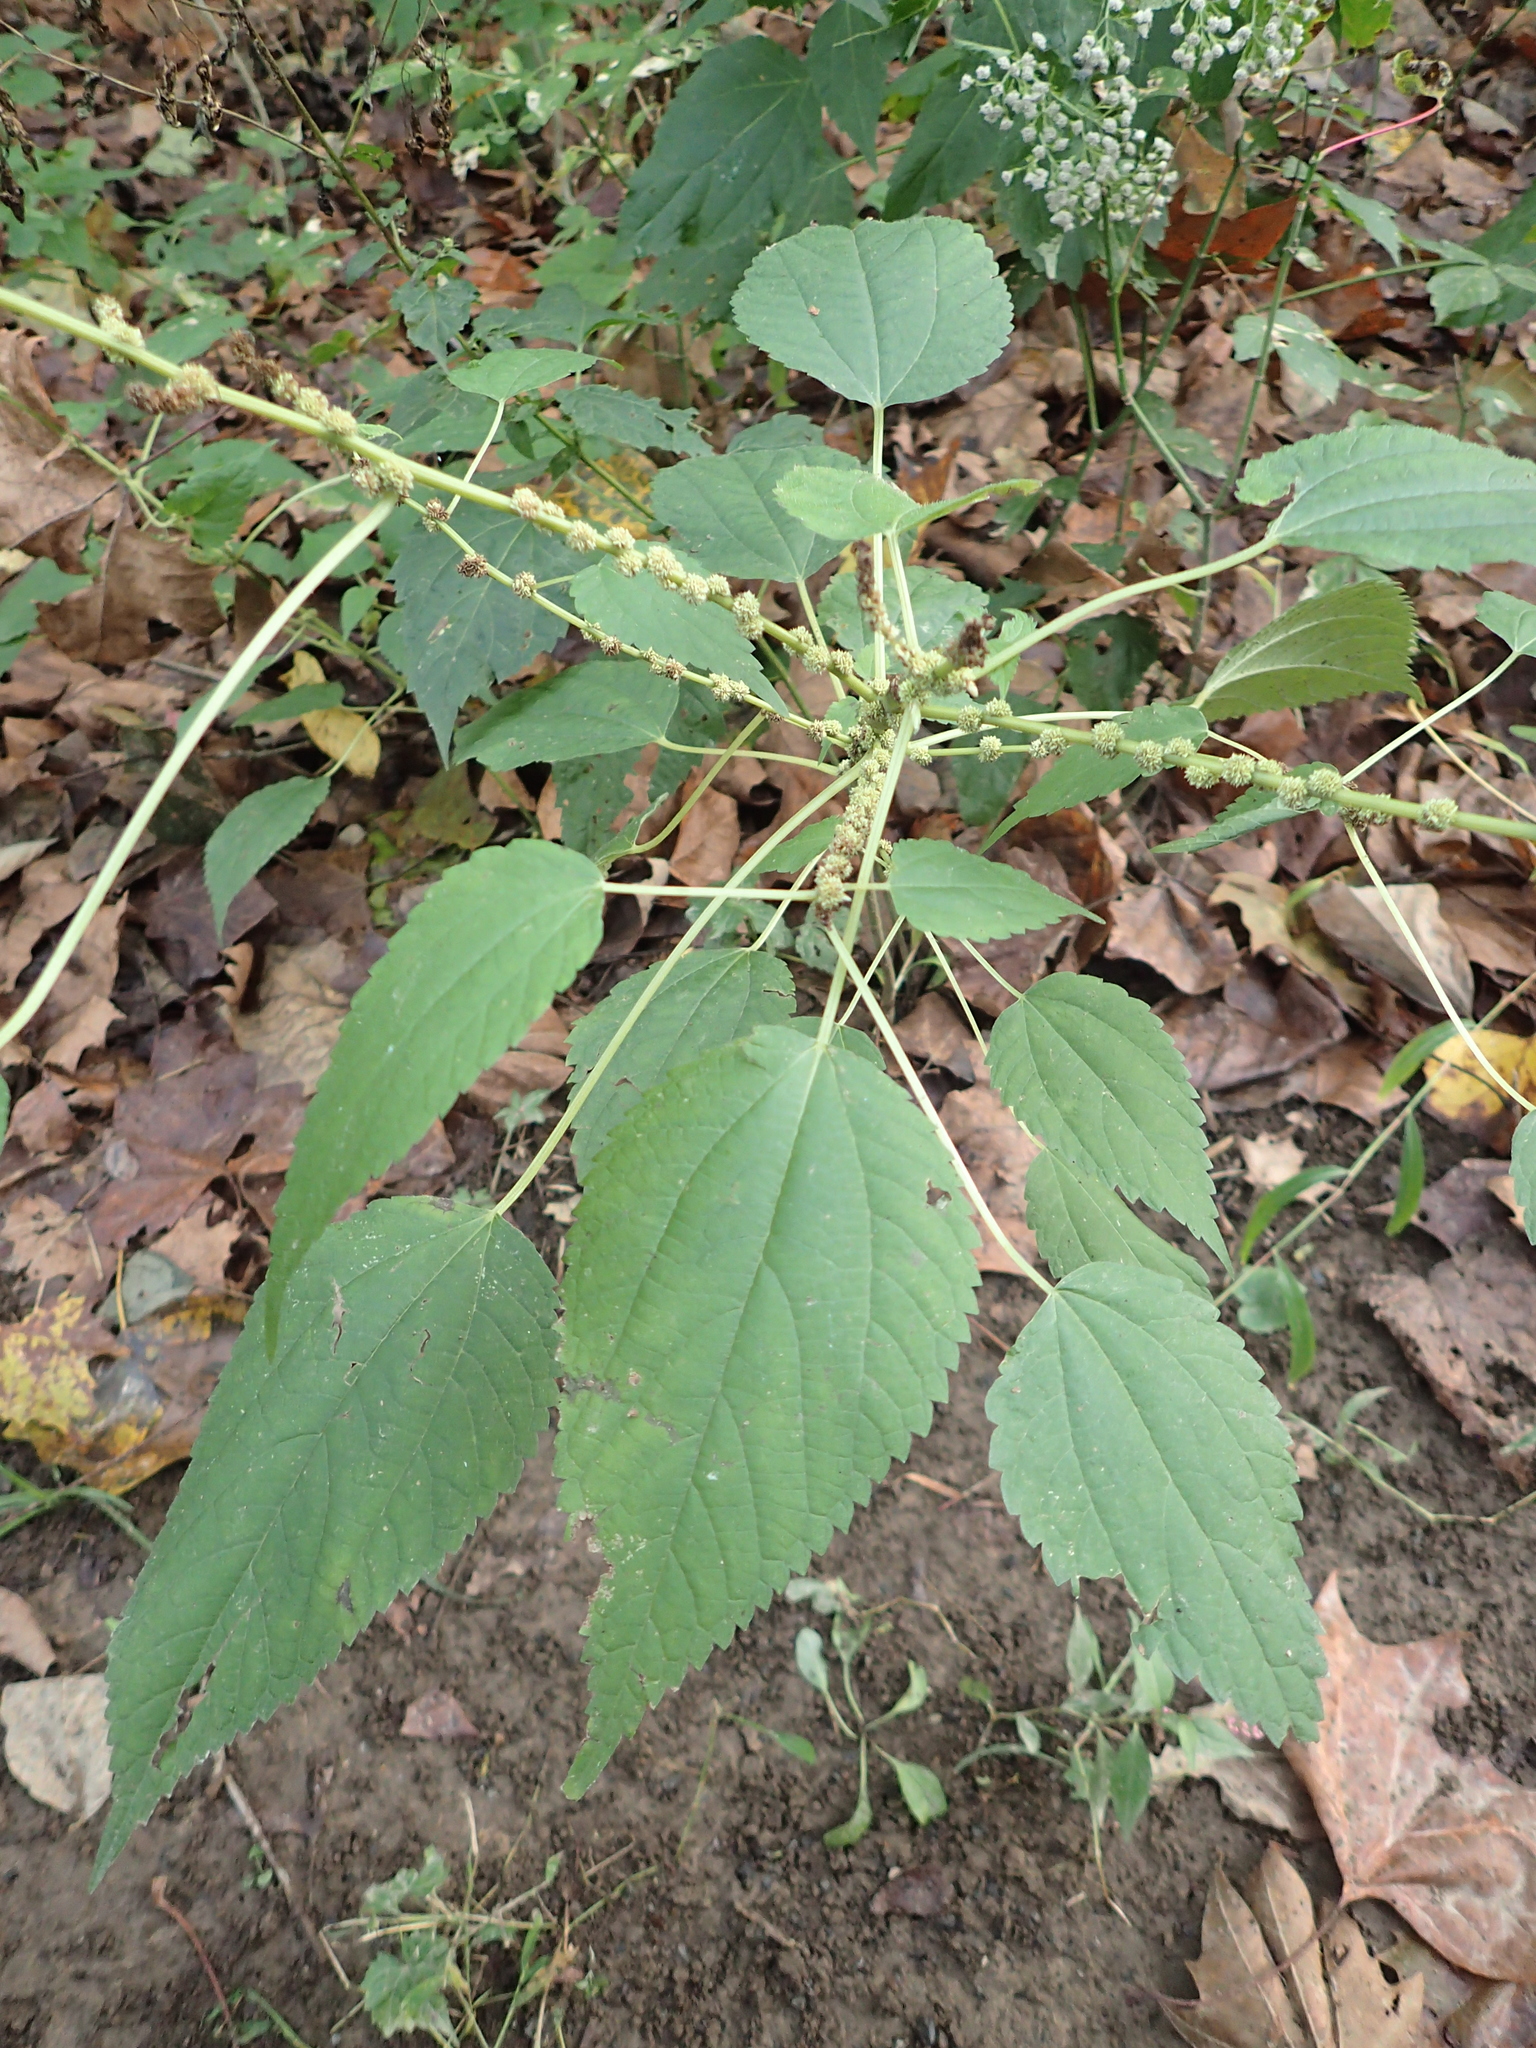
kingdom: Plantae
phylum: Tracheophyta
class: Magnoliopsida
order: Rosales
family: Urticaceae
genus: Boehmeria
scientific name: Boehmeria cylindrica
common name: Bog-hemp
